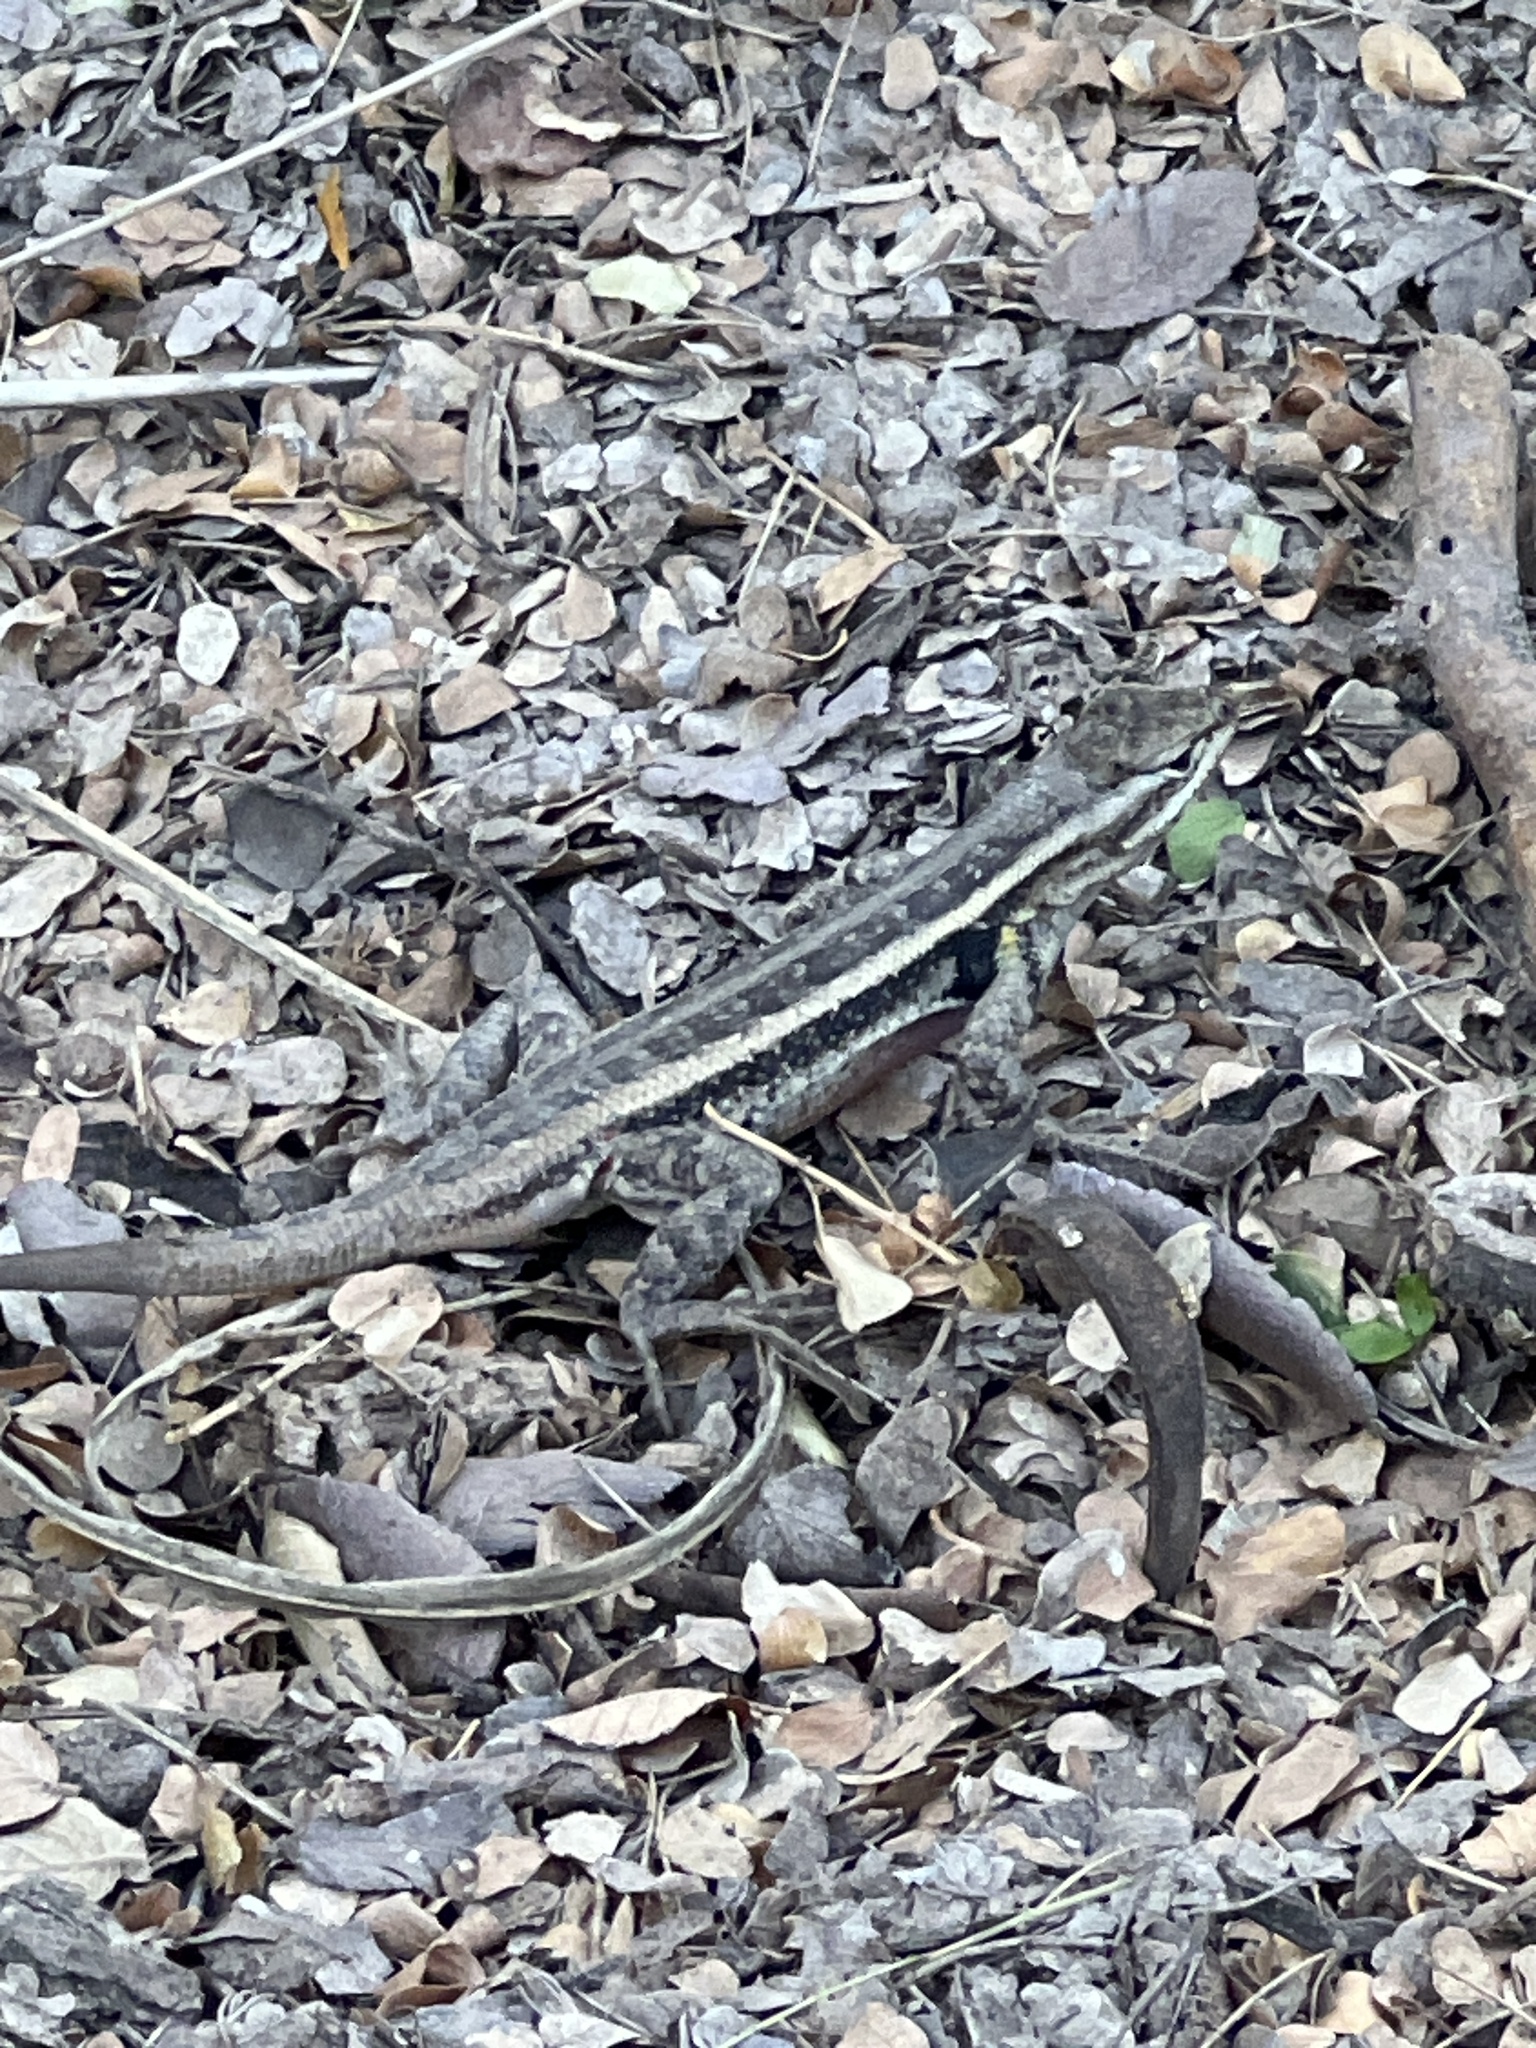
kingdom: Animalia
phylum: Chordata
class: Squamata
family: Phrynosomatidae
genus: Sceloporus
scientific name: Sceloporus variabilis
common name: Rosebelly lizard
